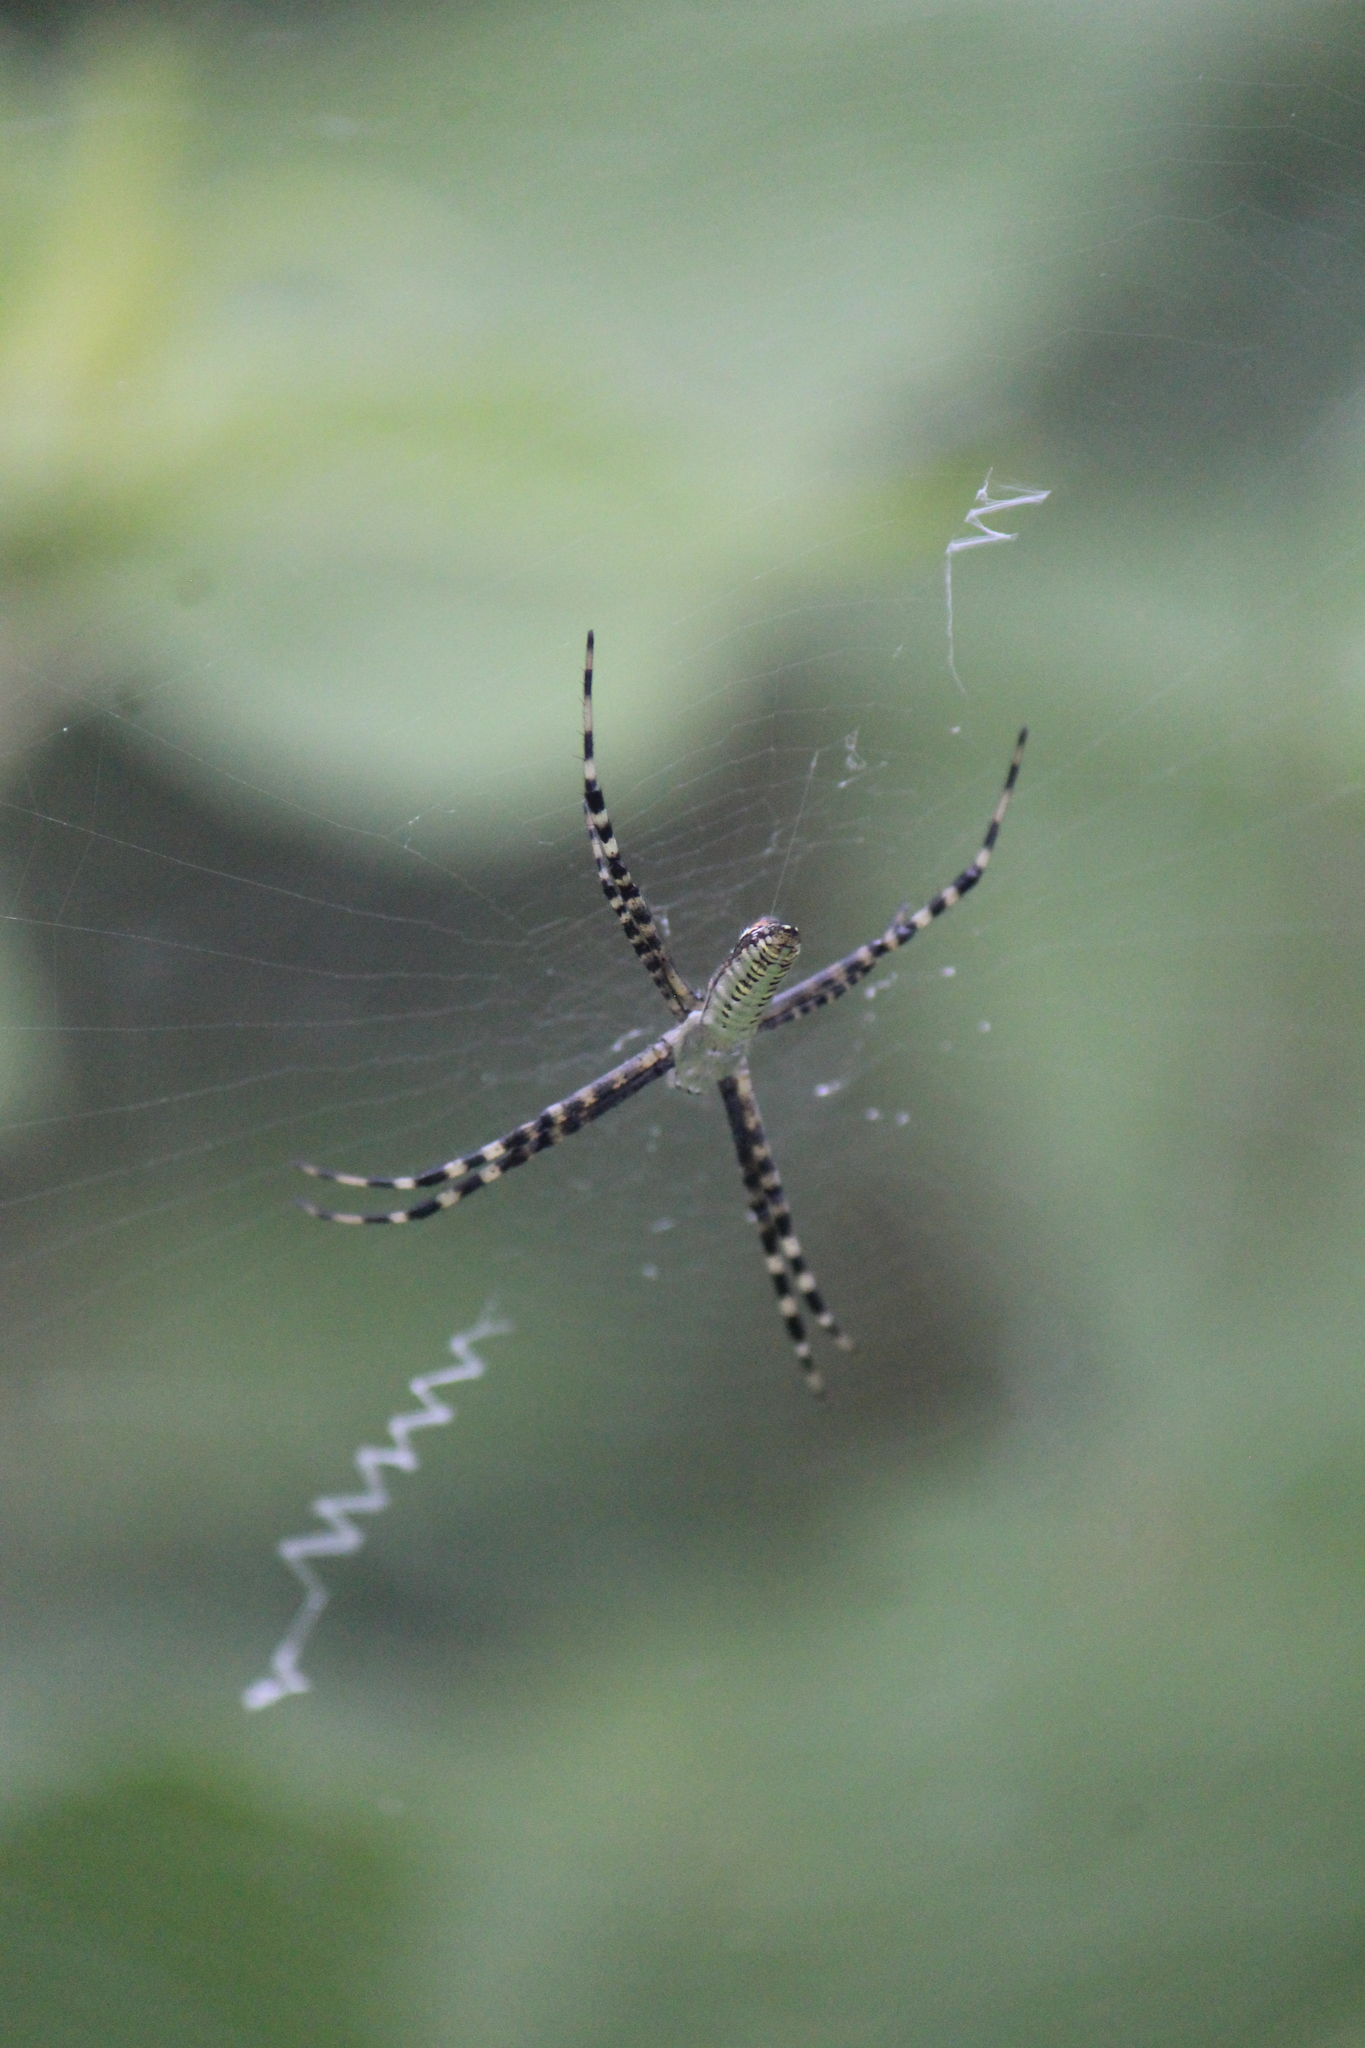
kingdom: Animalia
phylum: Arthropoda
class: Arachnida
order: Araneae
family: Araneidae
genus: Argiope
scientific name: Argiope trifasciata
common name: Banded garden spider
